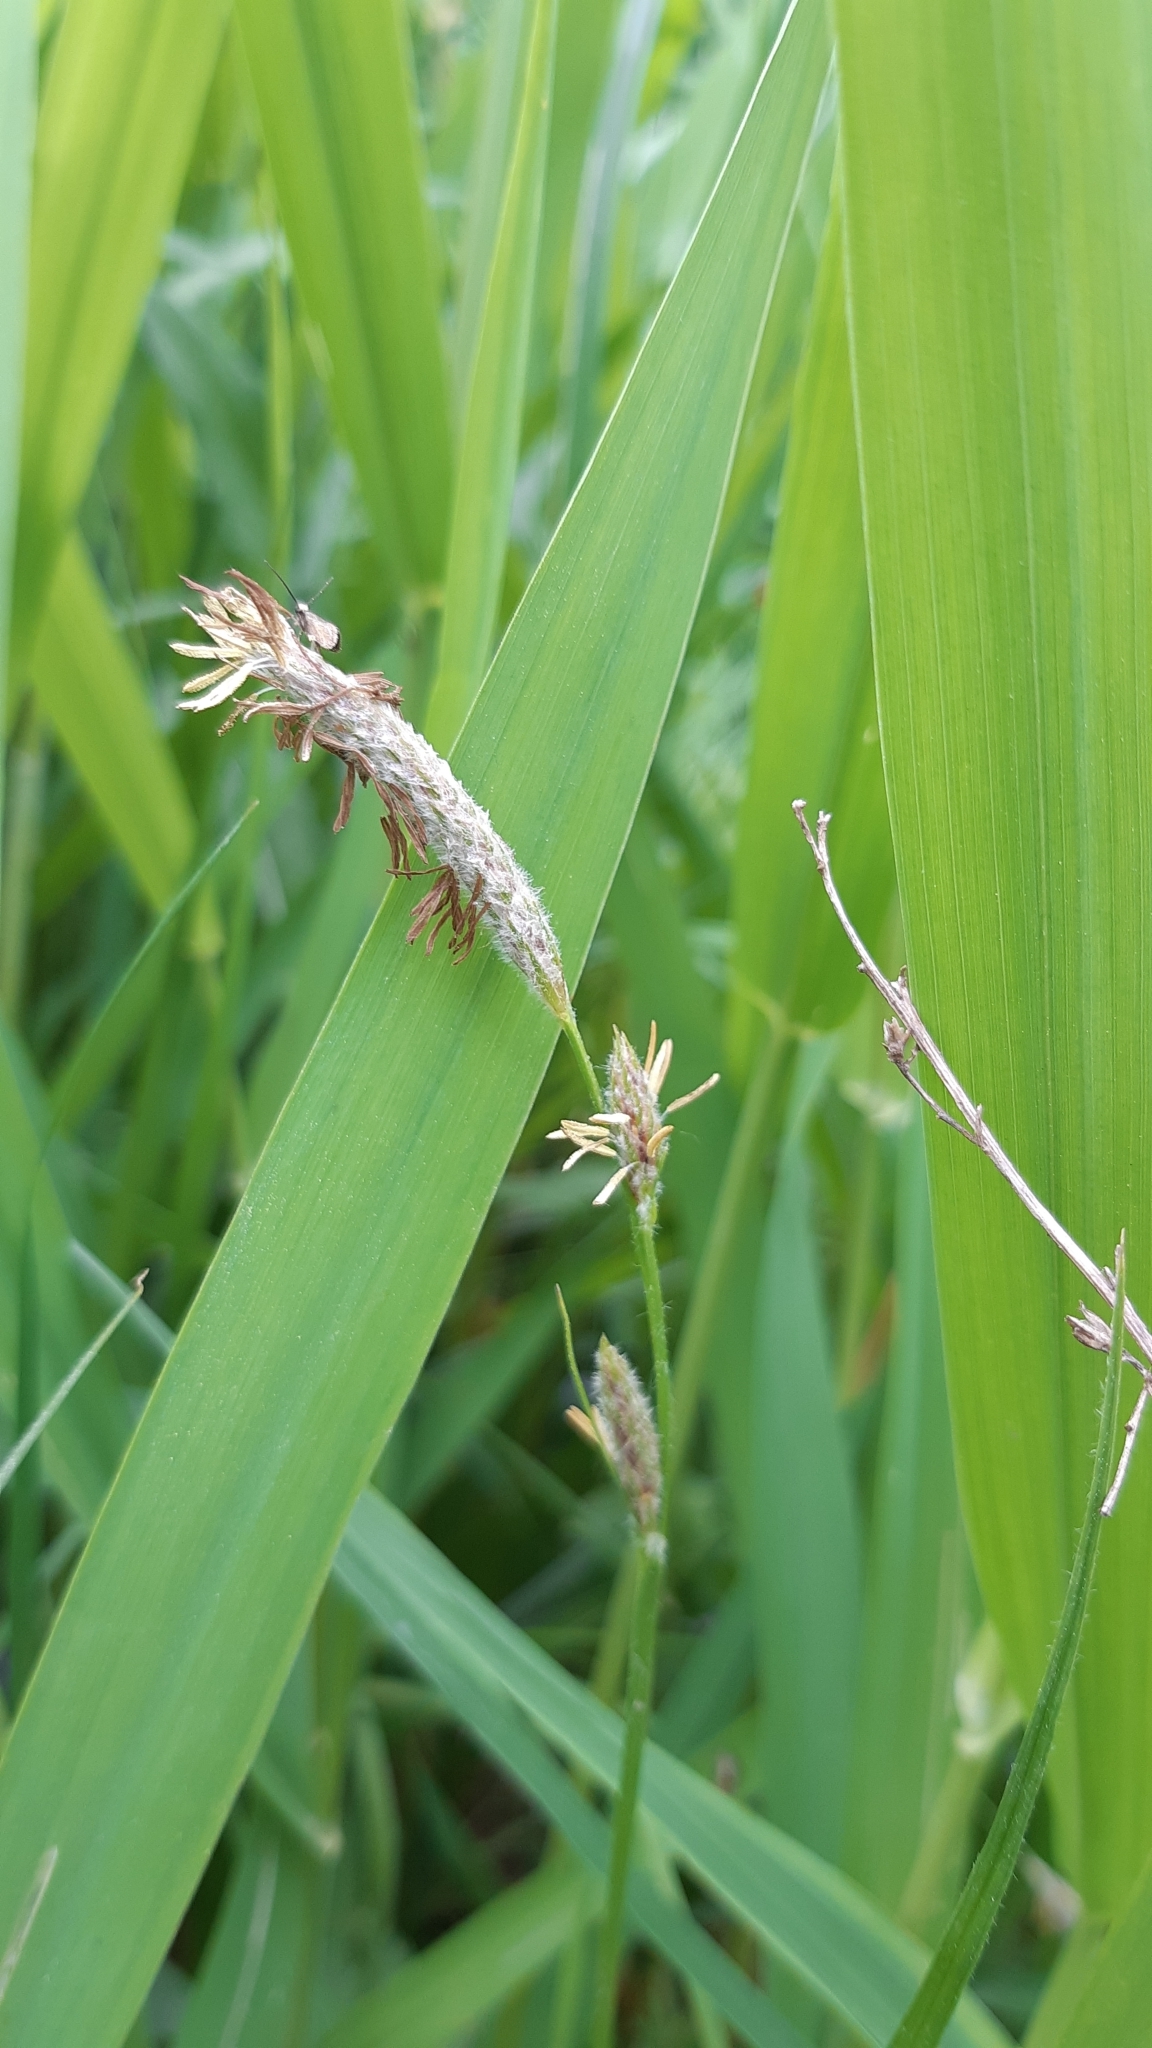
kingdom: Plantae
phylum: Tracheophyta
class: Liliopsida
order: Poales
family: Cyperaceae
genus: Carex
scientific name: Carex hirta
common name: Hairy sedge
